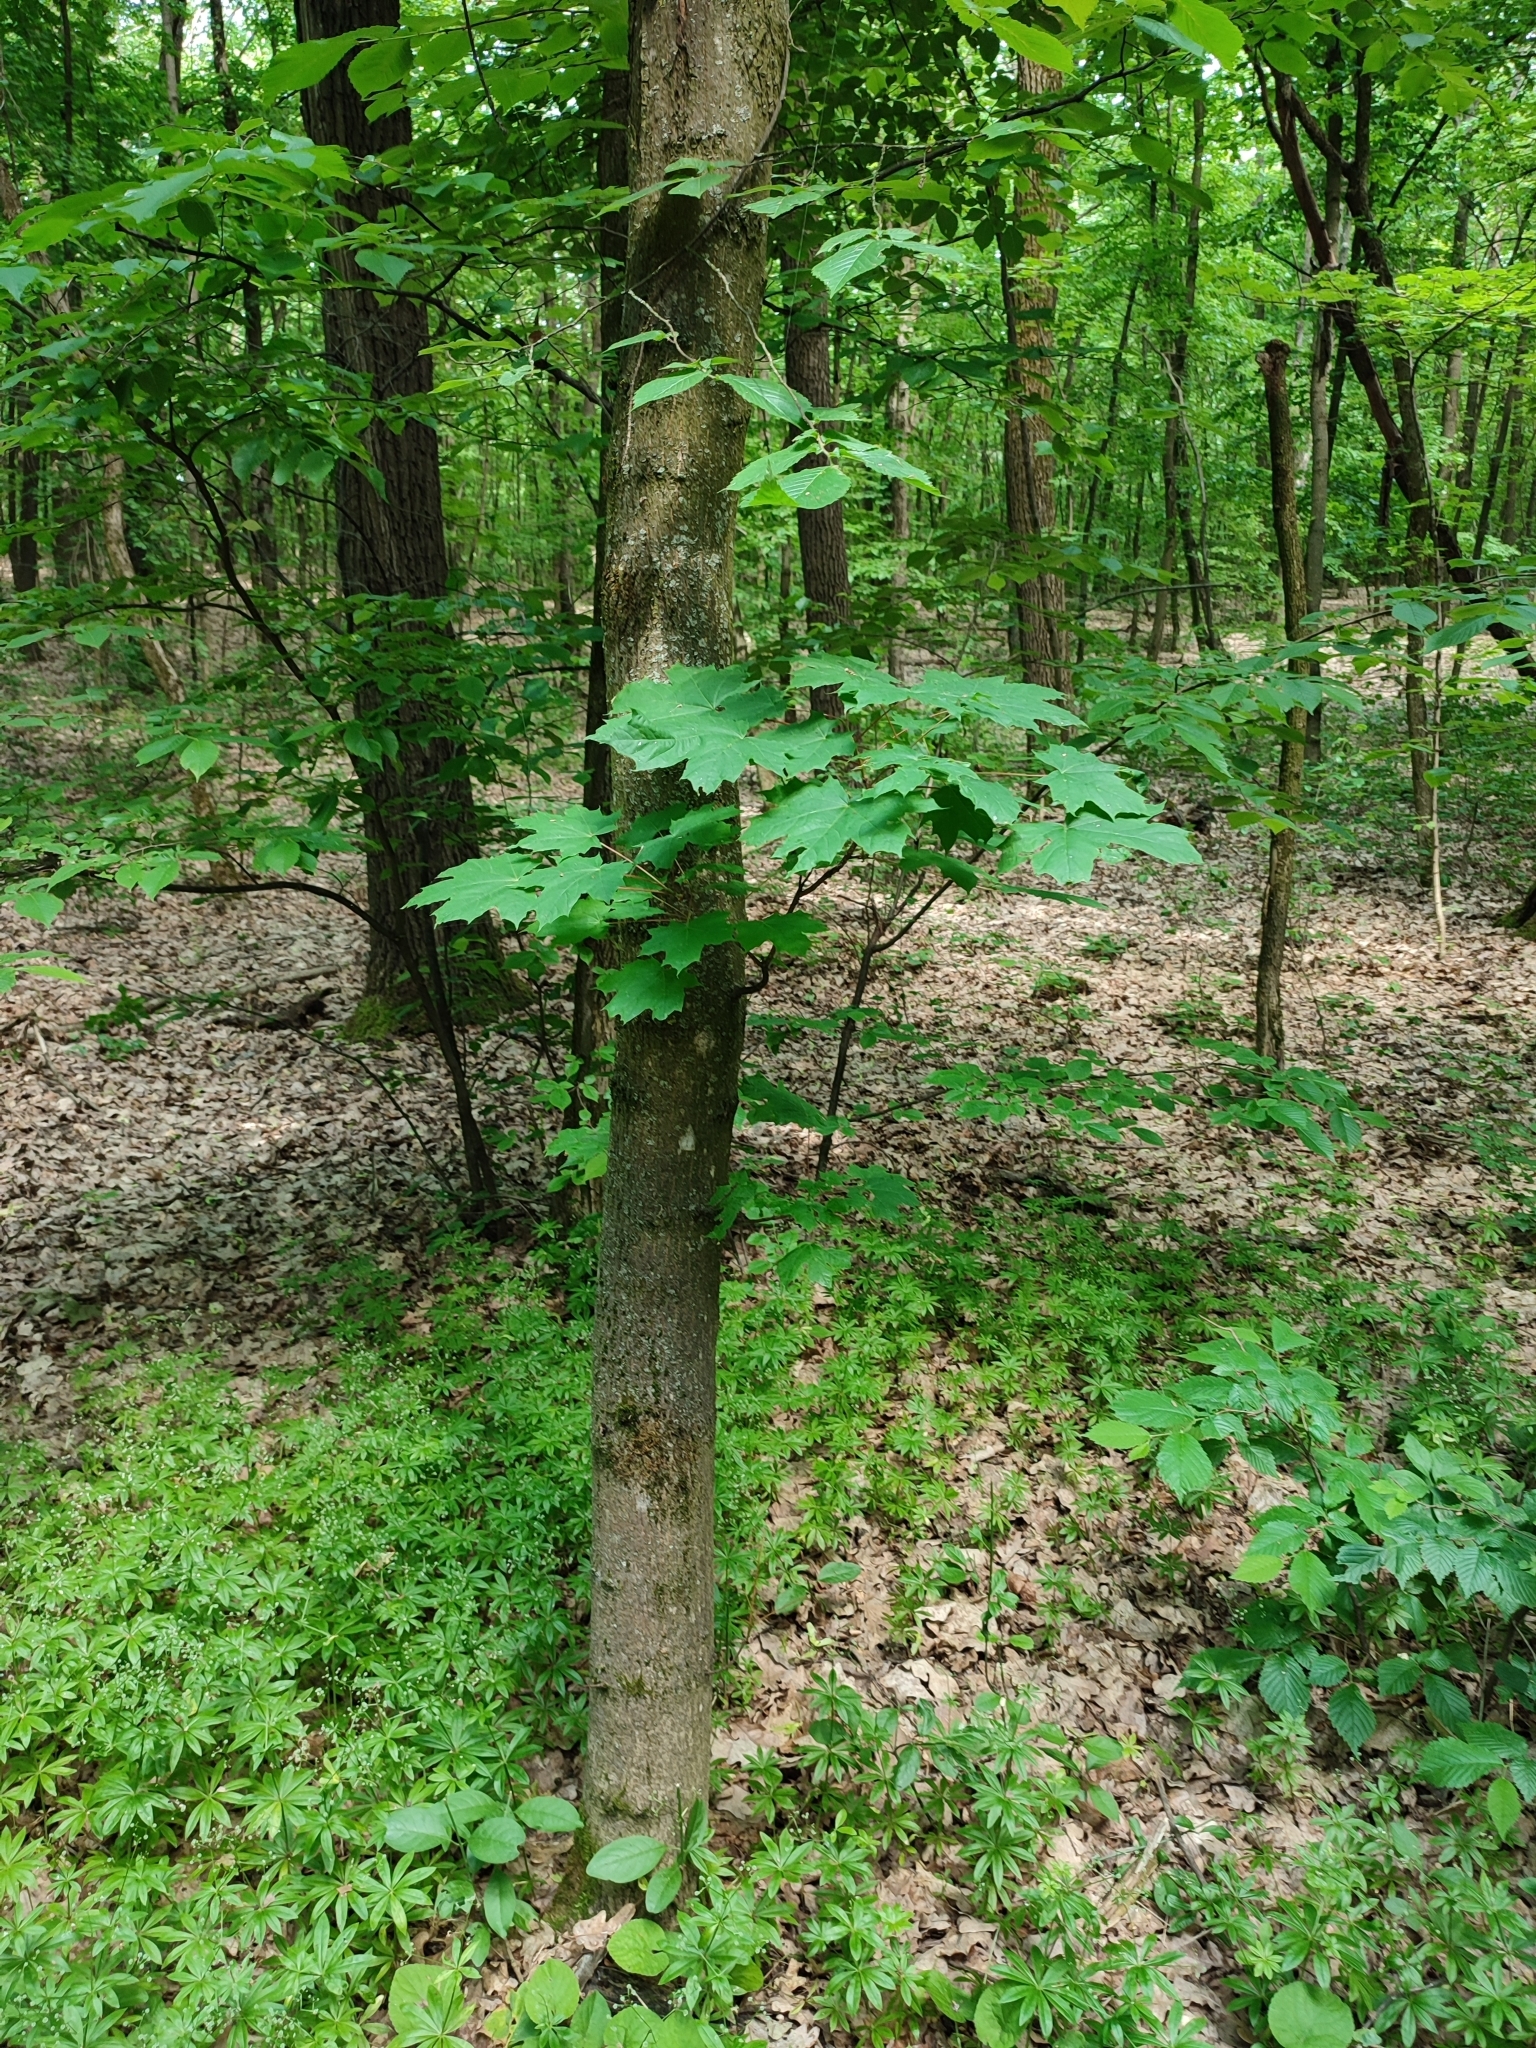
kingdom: Plantae
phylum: Tracheophyta
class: Magnoliopsida
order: Sapindales
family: Sapindaceae
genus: Acer
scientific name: Acer platanoides
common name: Norway maple
